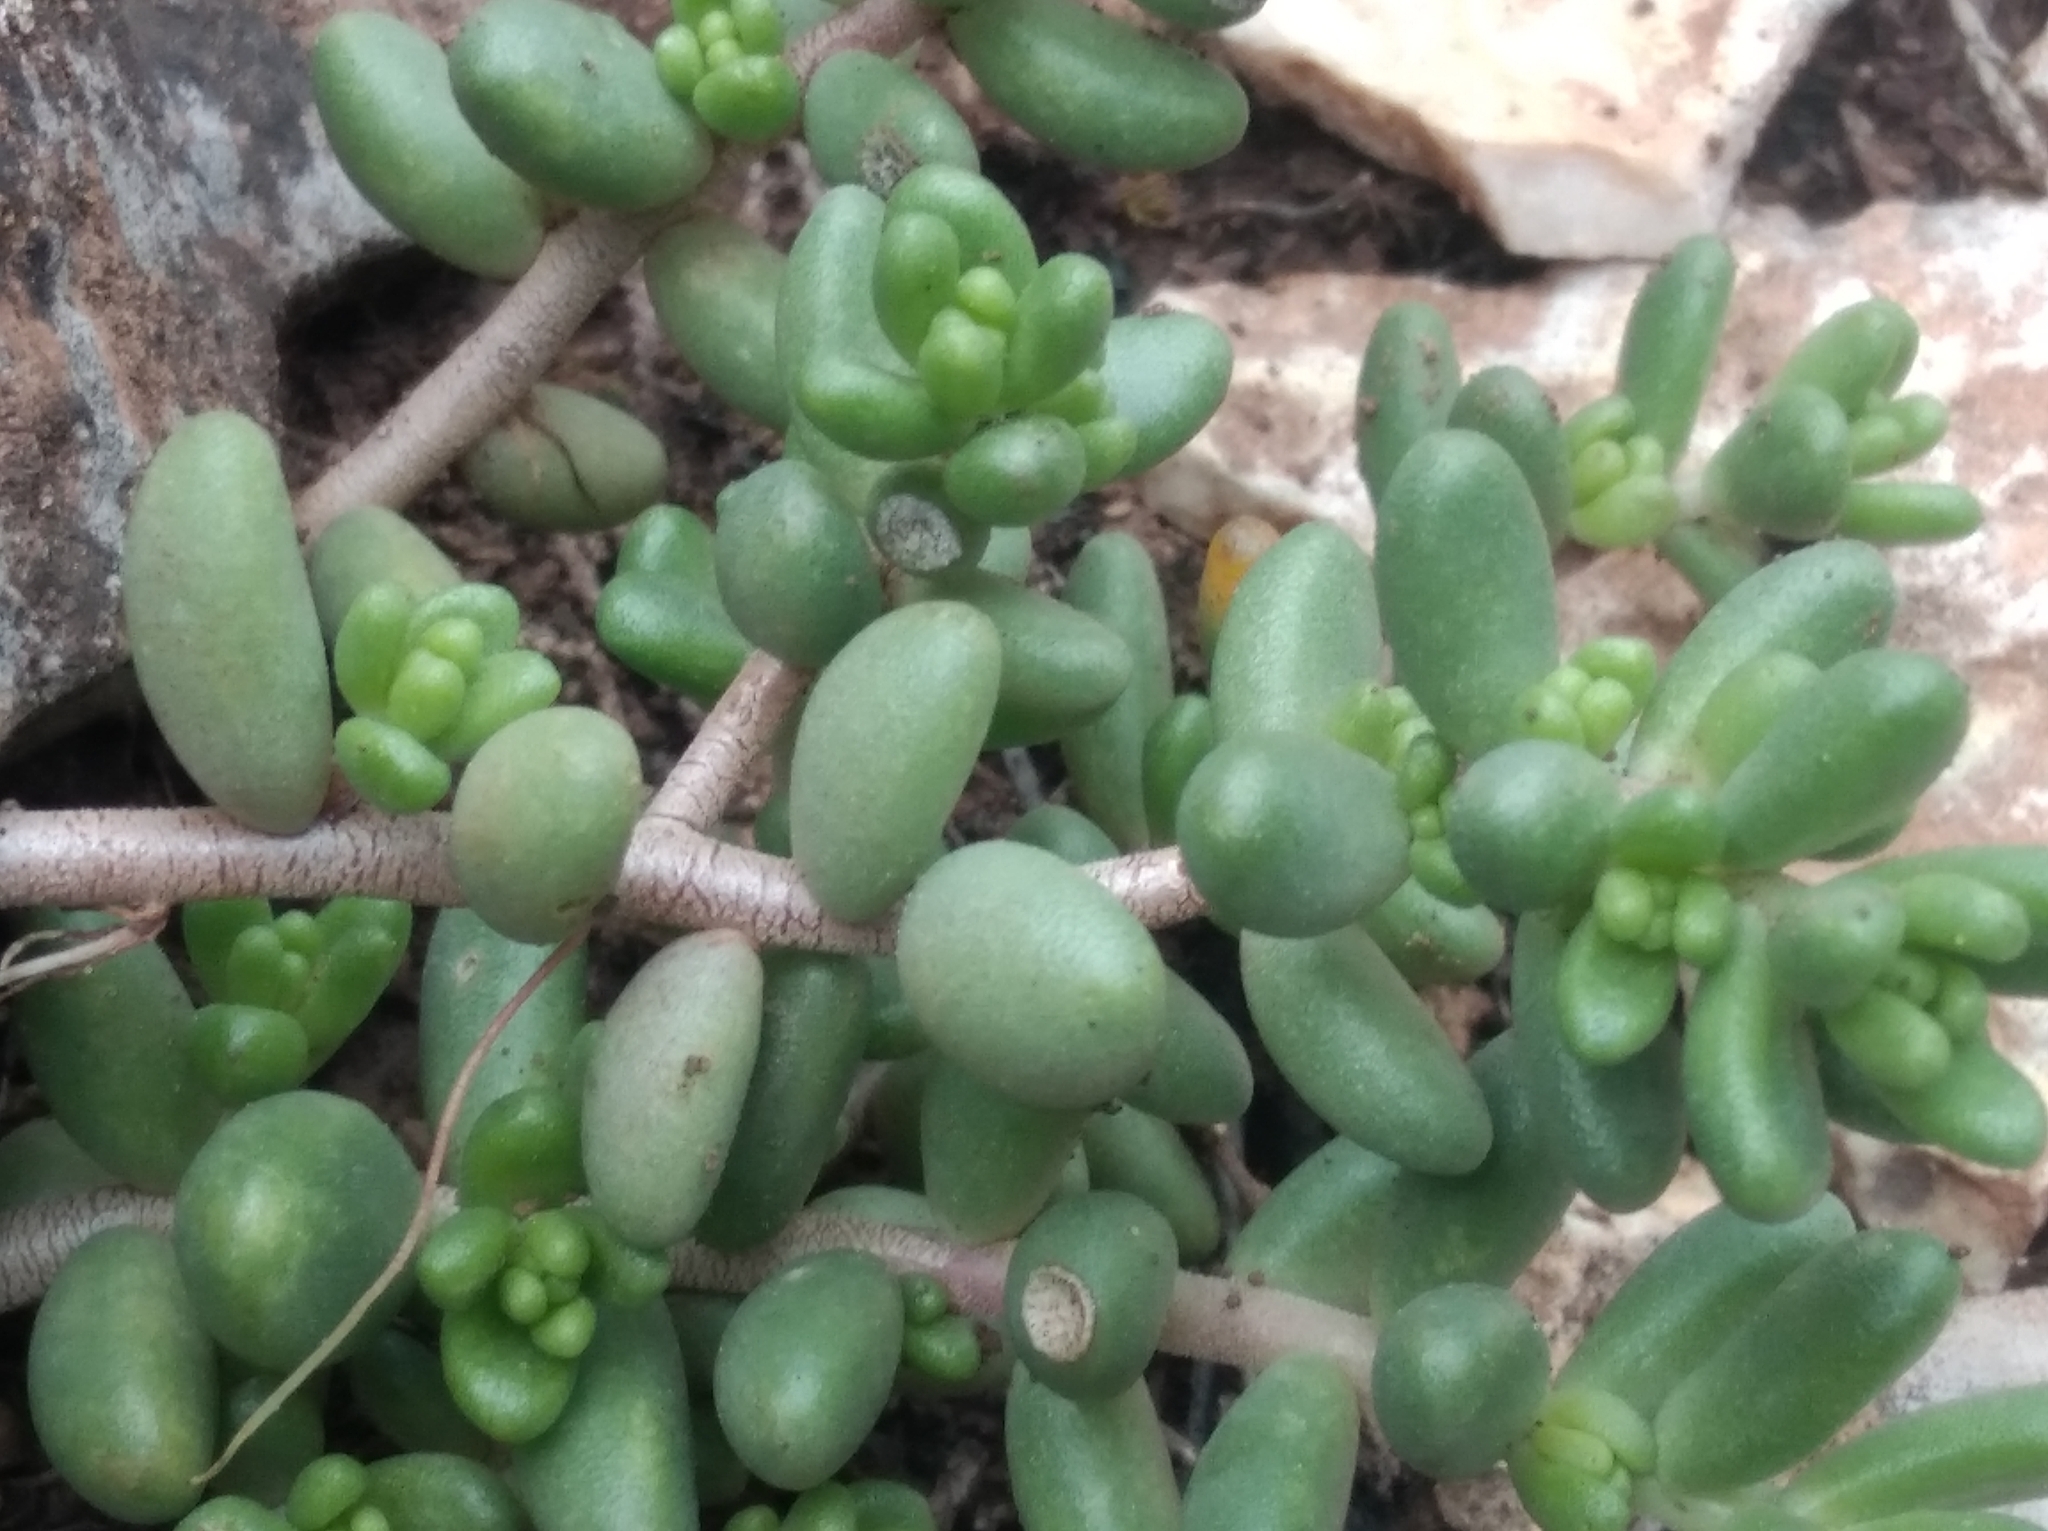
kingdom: Plantae
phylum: Tracheophyta
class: Magnoliopsida
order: Saxifragales
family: Crassulaceae
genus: Sedum
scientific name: Sedum album
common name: White stonecrop
